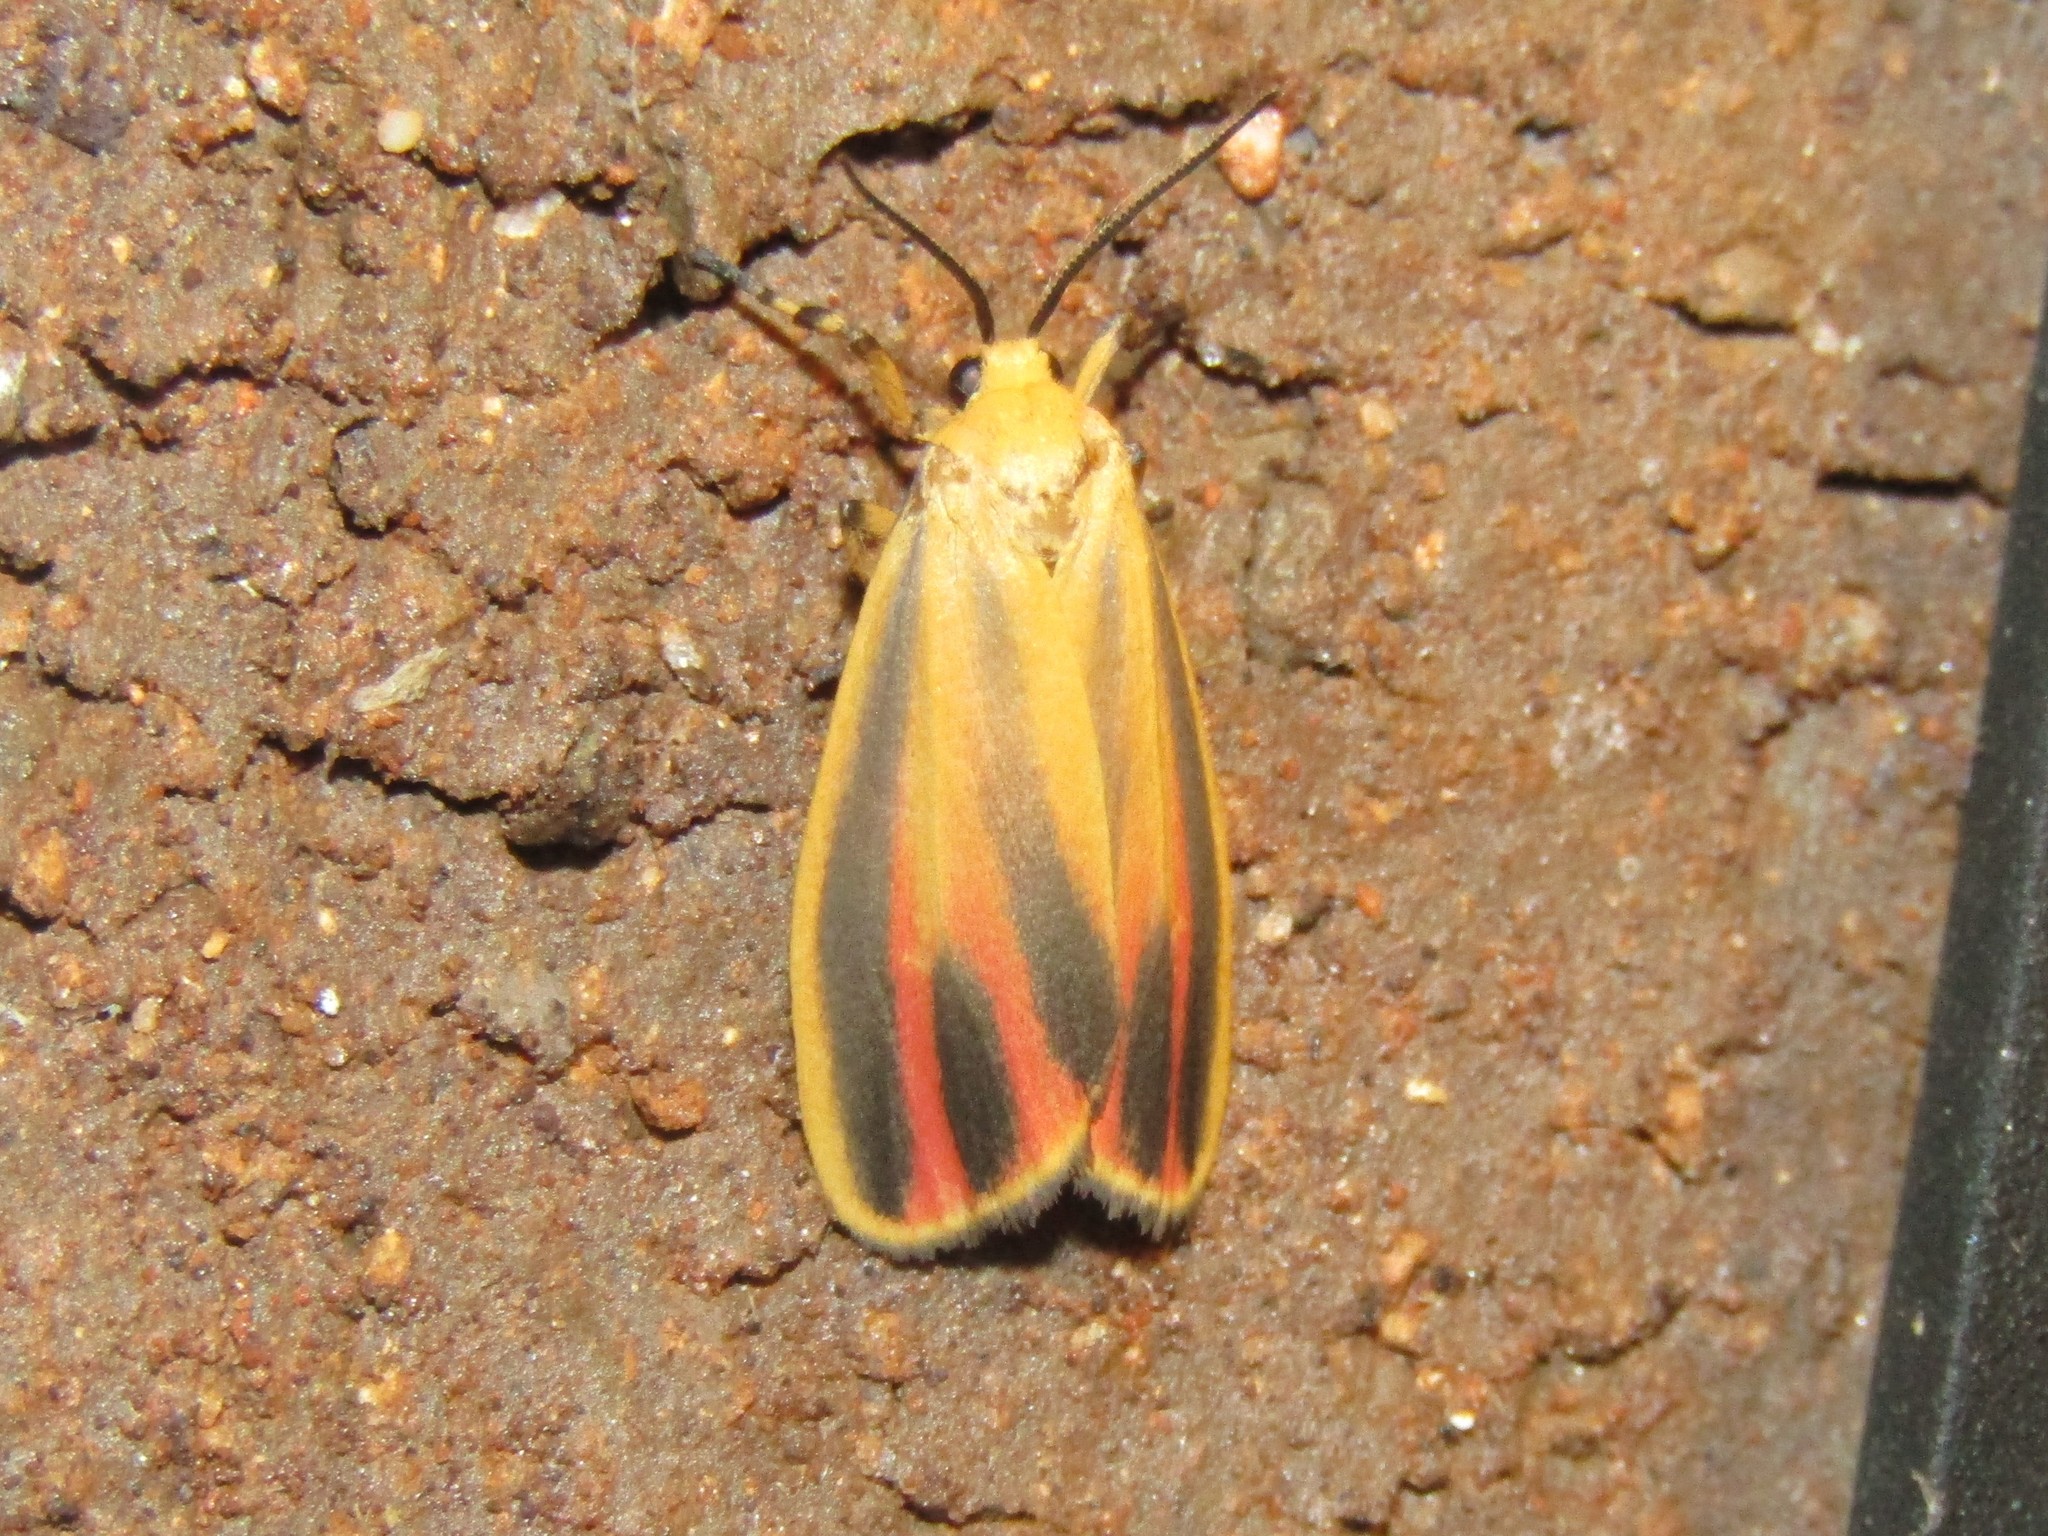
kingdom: Animalia
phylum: Arthropoda
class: Insecta
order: Lepidoptera
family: Erebidae
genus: Hypoprepia
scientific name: Hypoprepia fucosa
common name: Painted lichen moth
